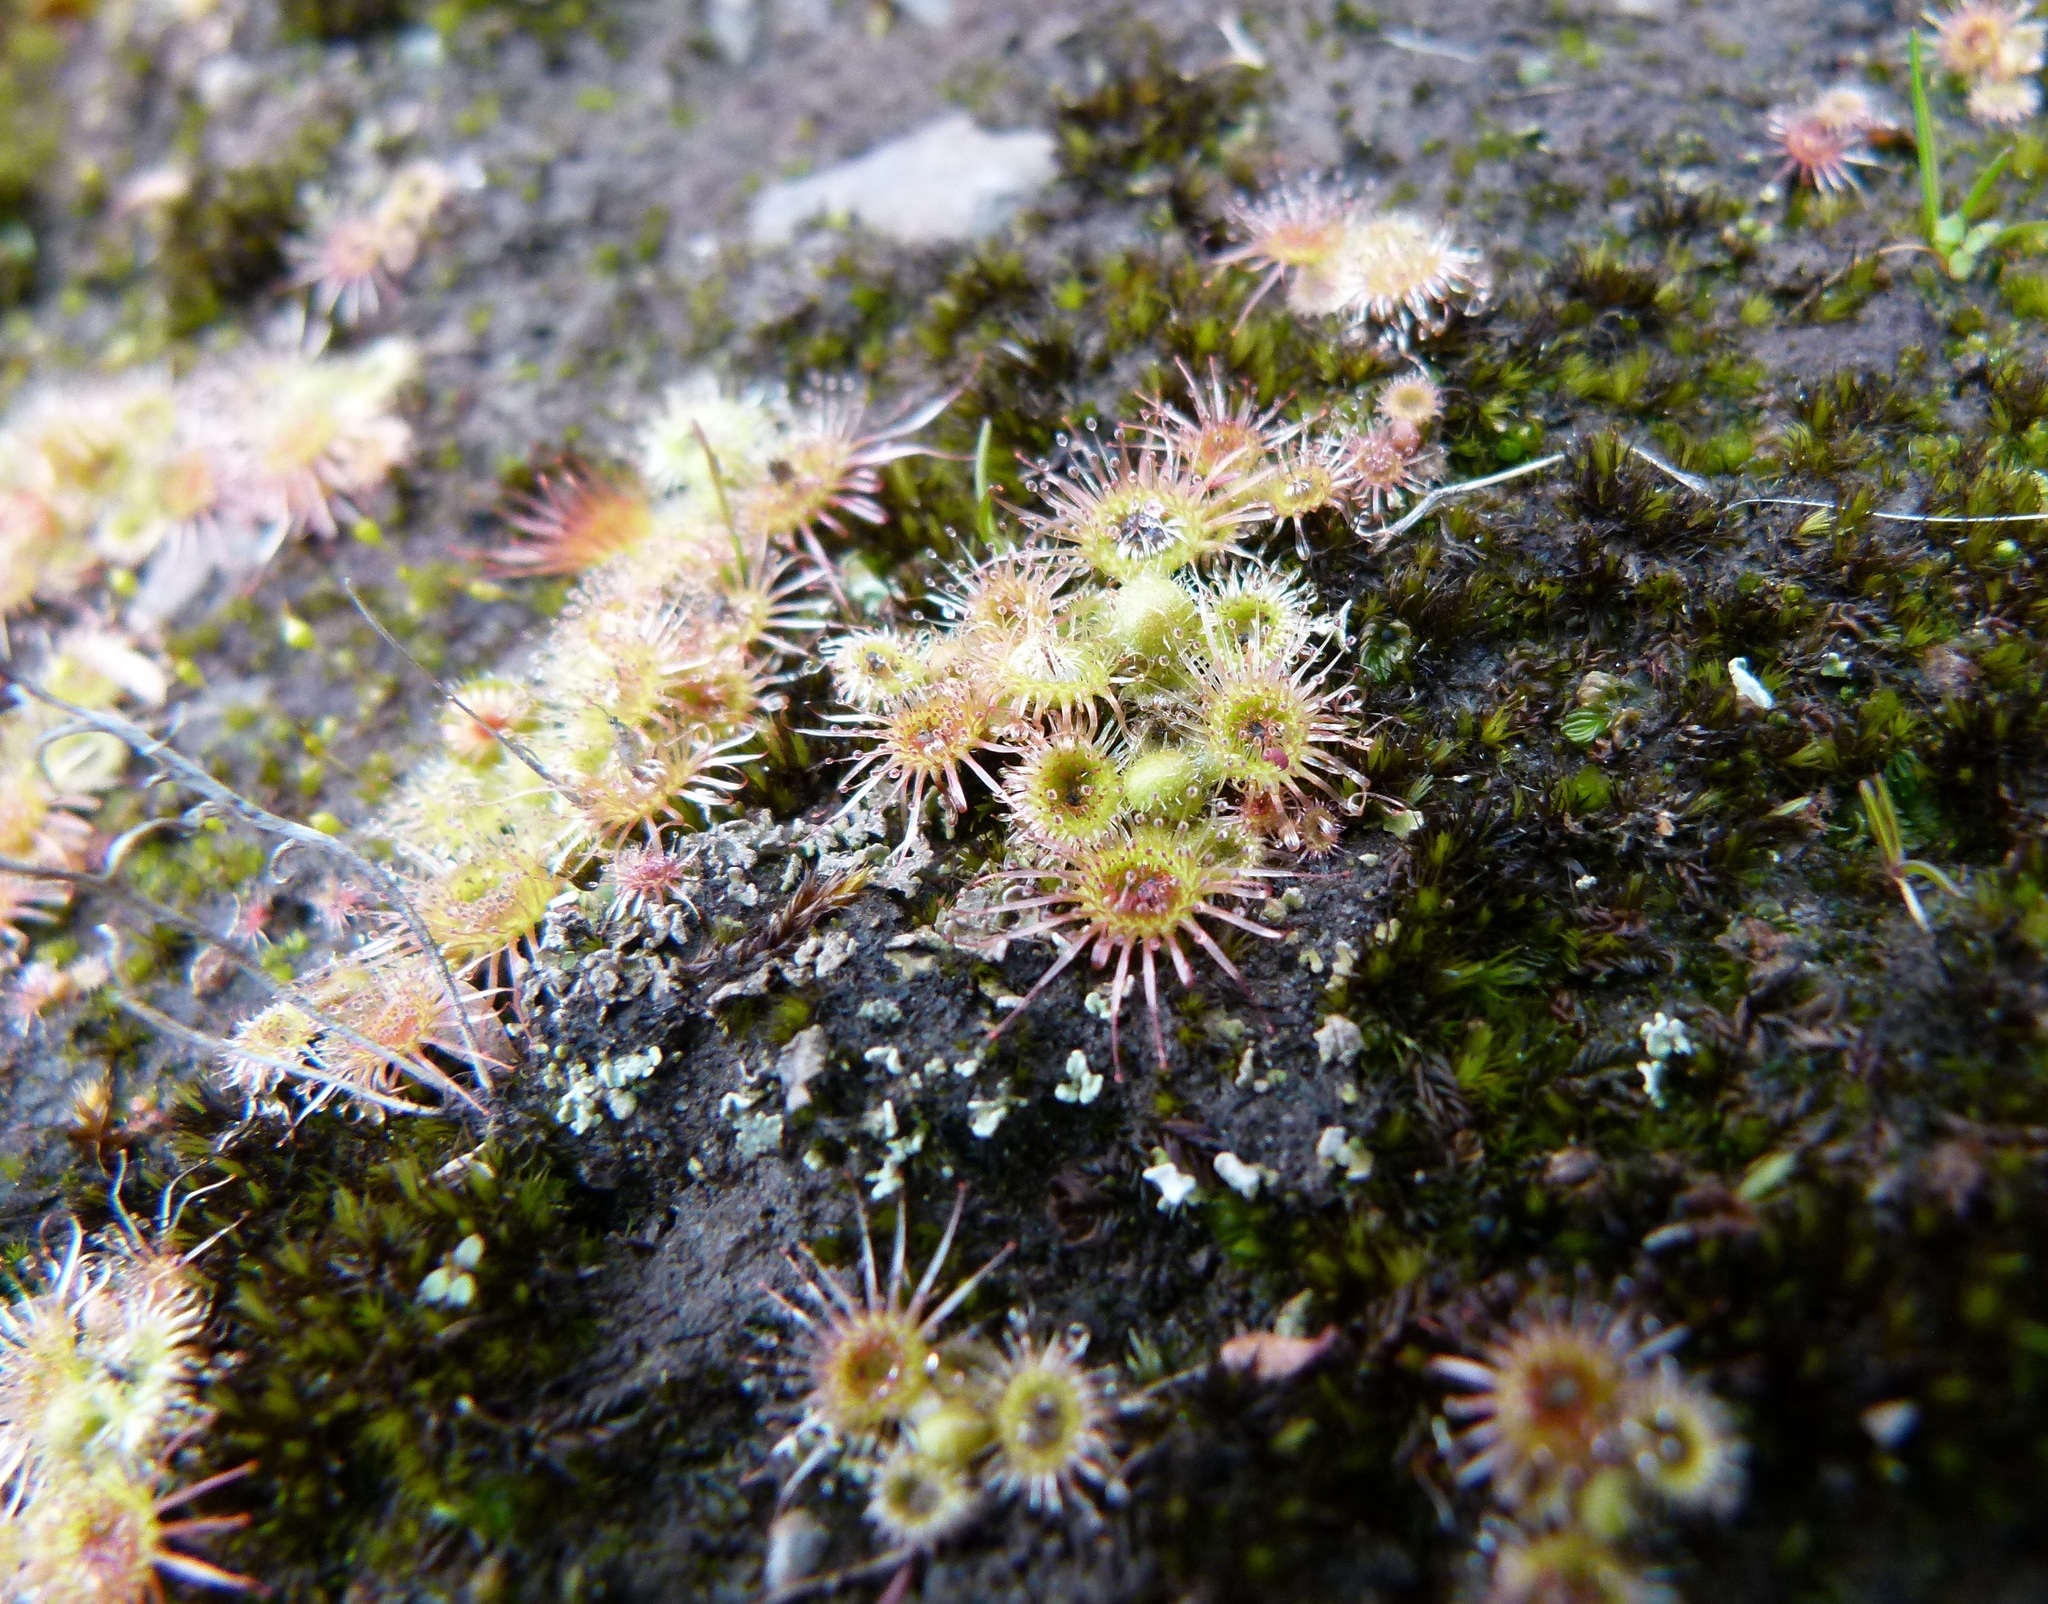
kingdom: Plantae
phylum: Tracheophyta
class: Magnoliopsida
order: Caryophyllales
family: Droseraceae
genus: Drosera
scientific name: Drosera glanduligera
